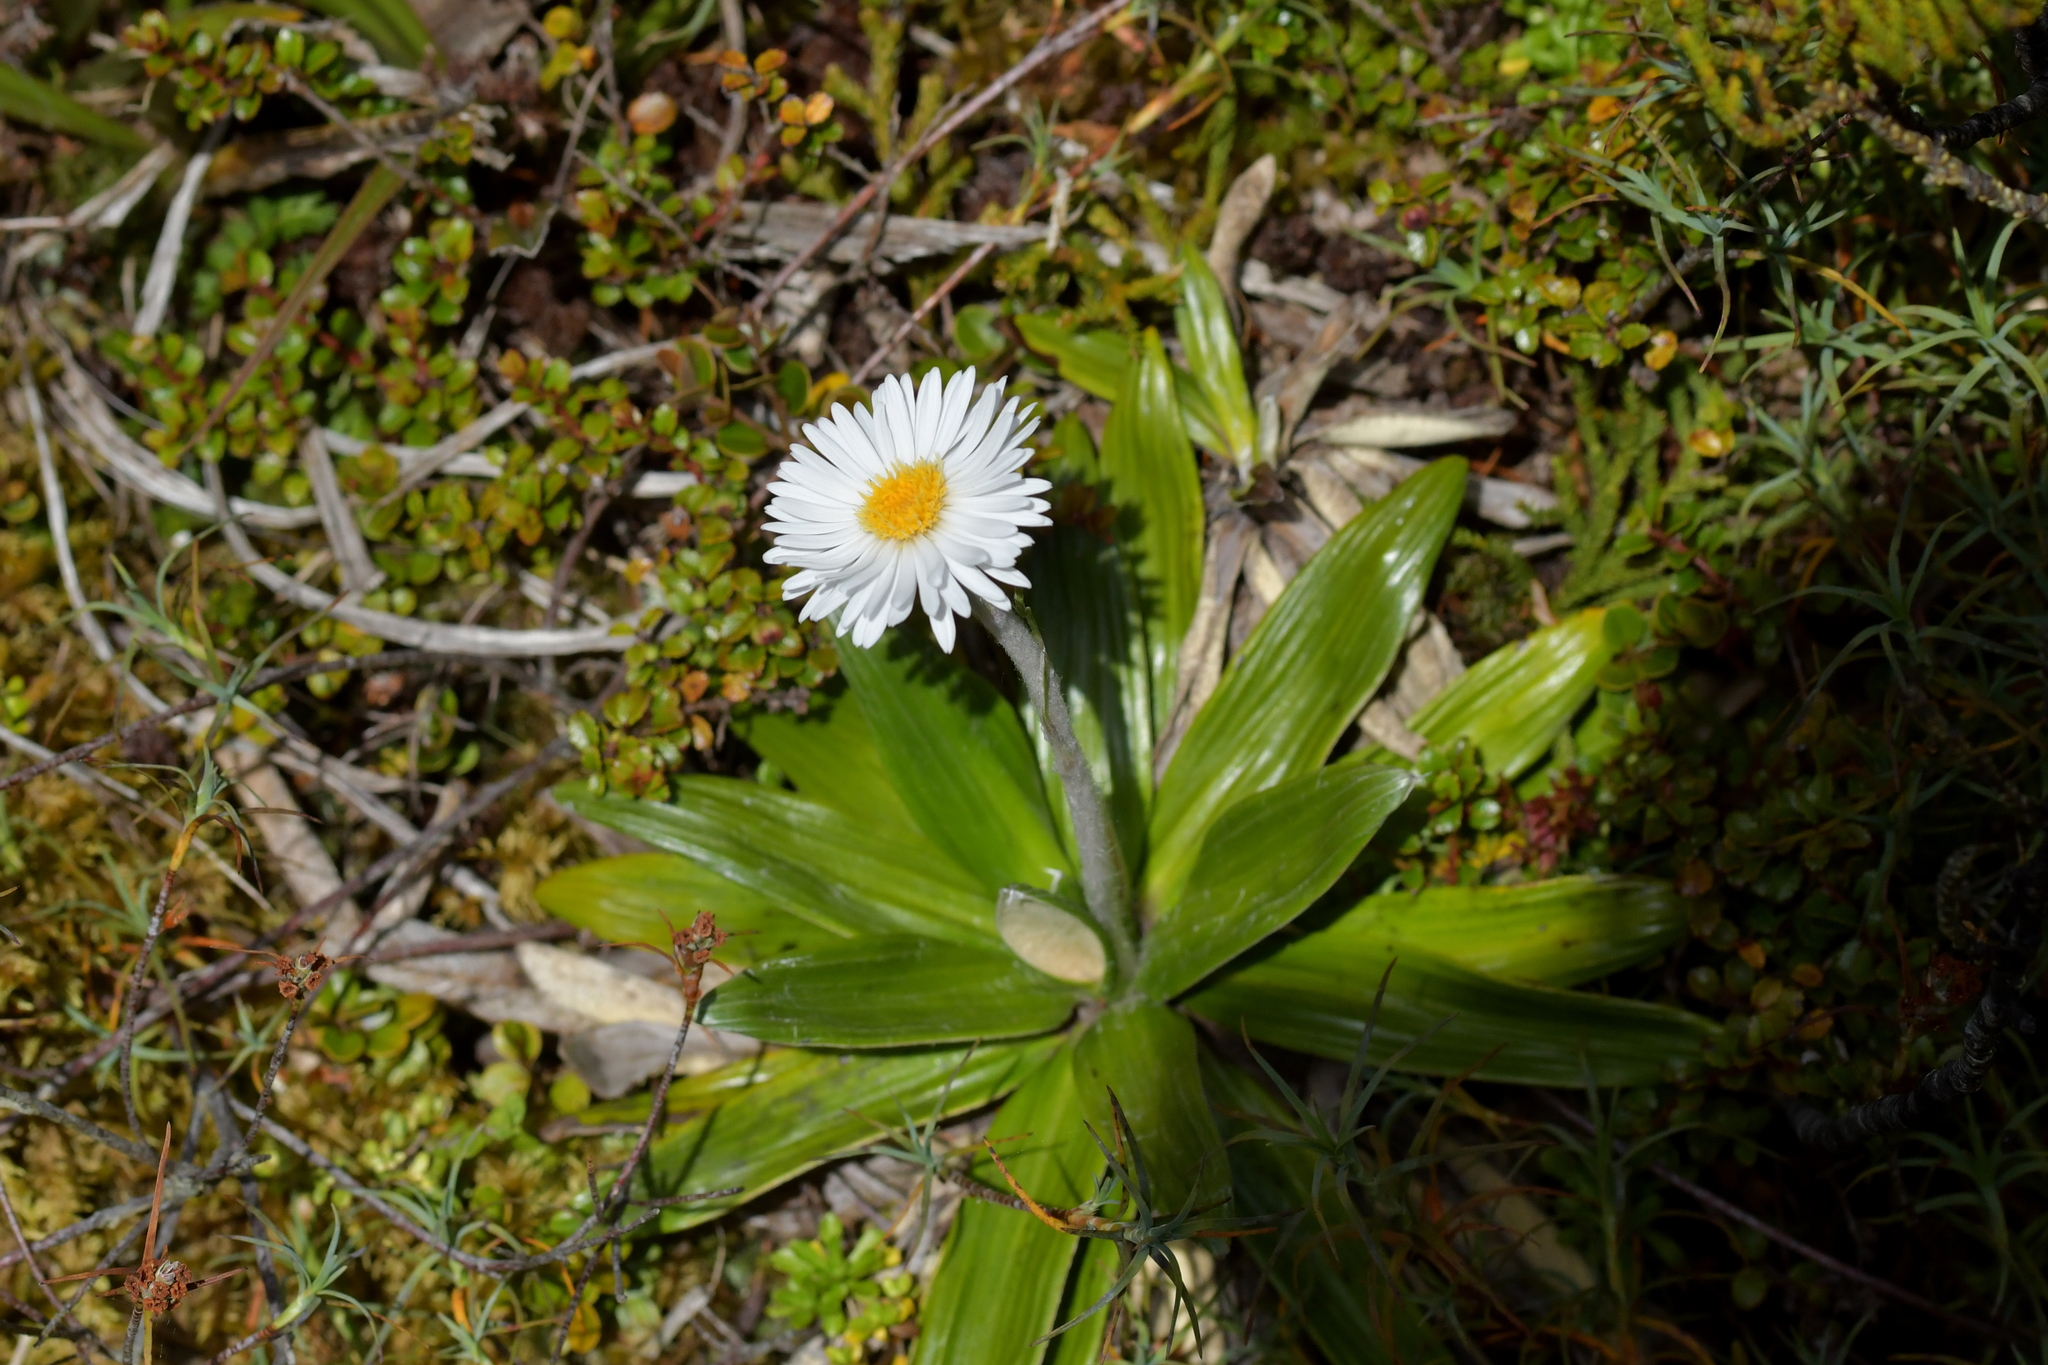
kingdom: Plantae
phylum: Tracheophyta
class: Magnoliopsida
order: Asterales
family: Asteraceae
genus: Celmisia
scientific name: Celmisia spectabilis
